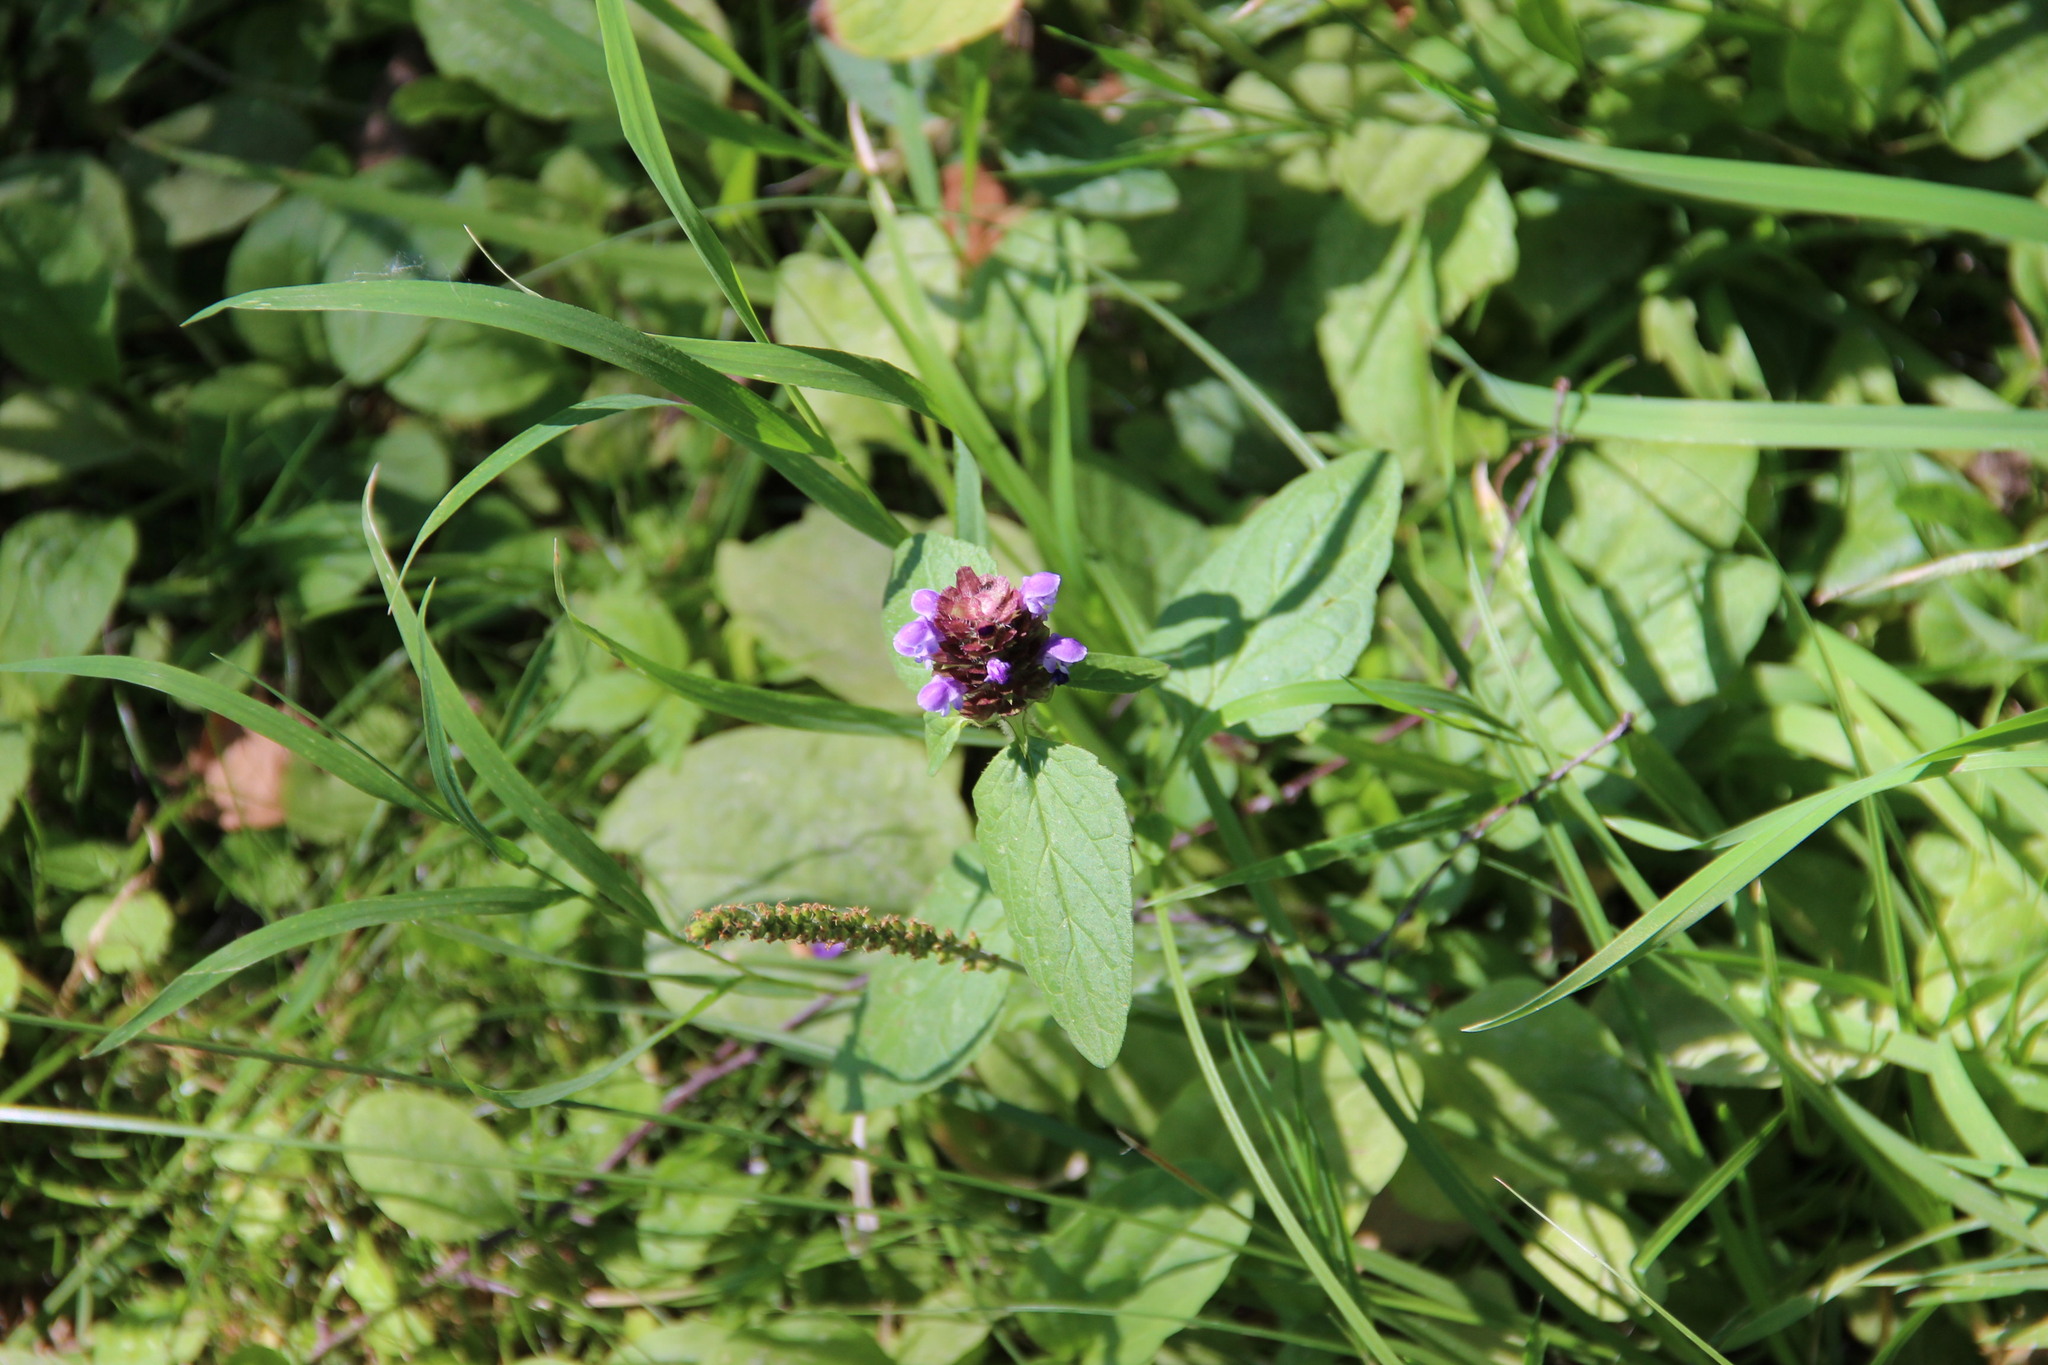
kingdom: Plantae
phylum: Tracheophyta
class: Magnoliopsida
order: Lamiales
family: Lamiaceae
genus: Prunella
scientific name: Prunella vulgaris
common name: Heal-all
